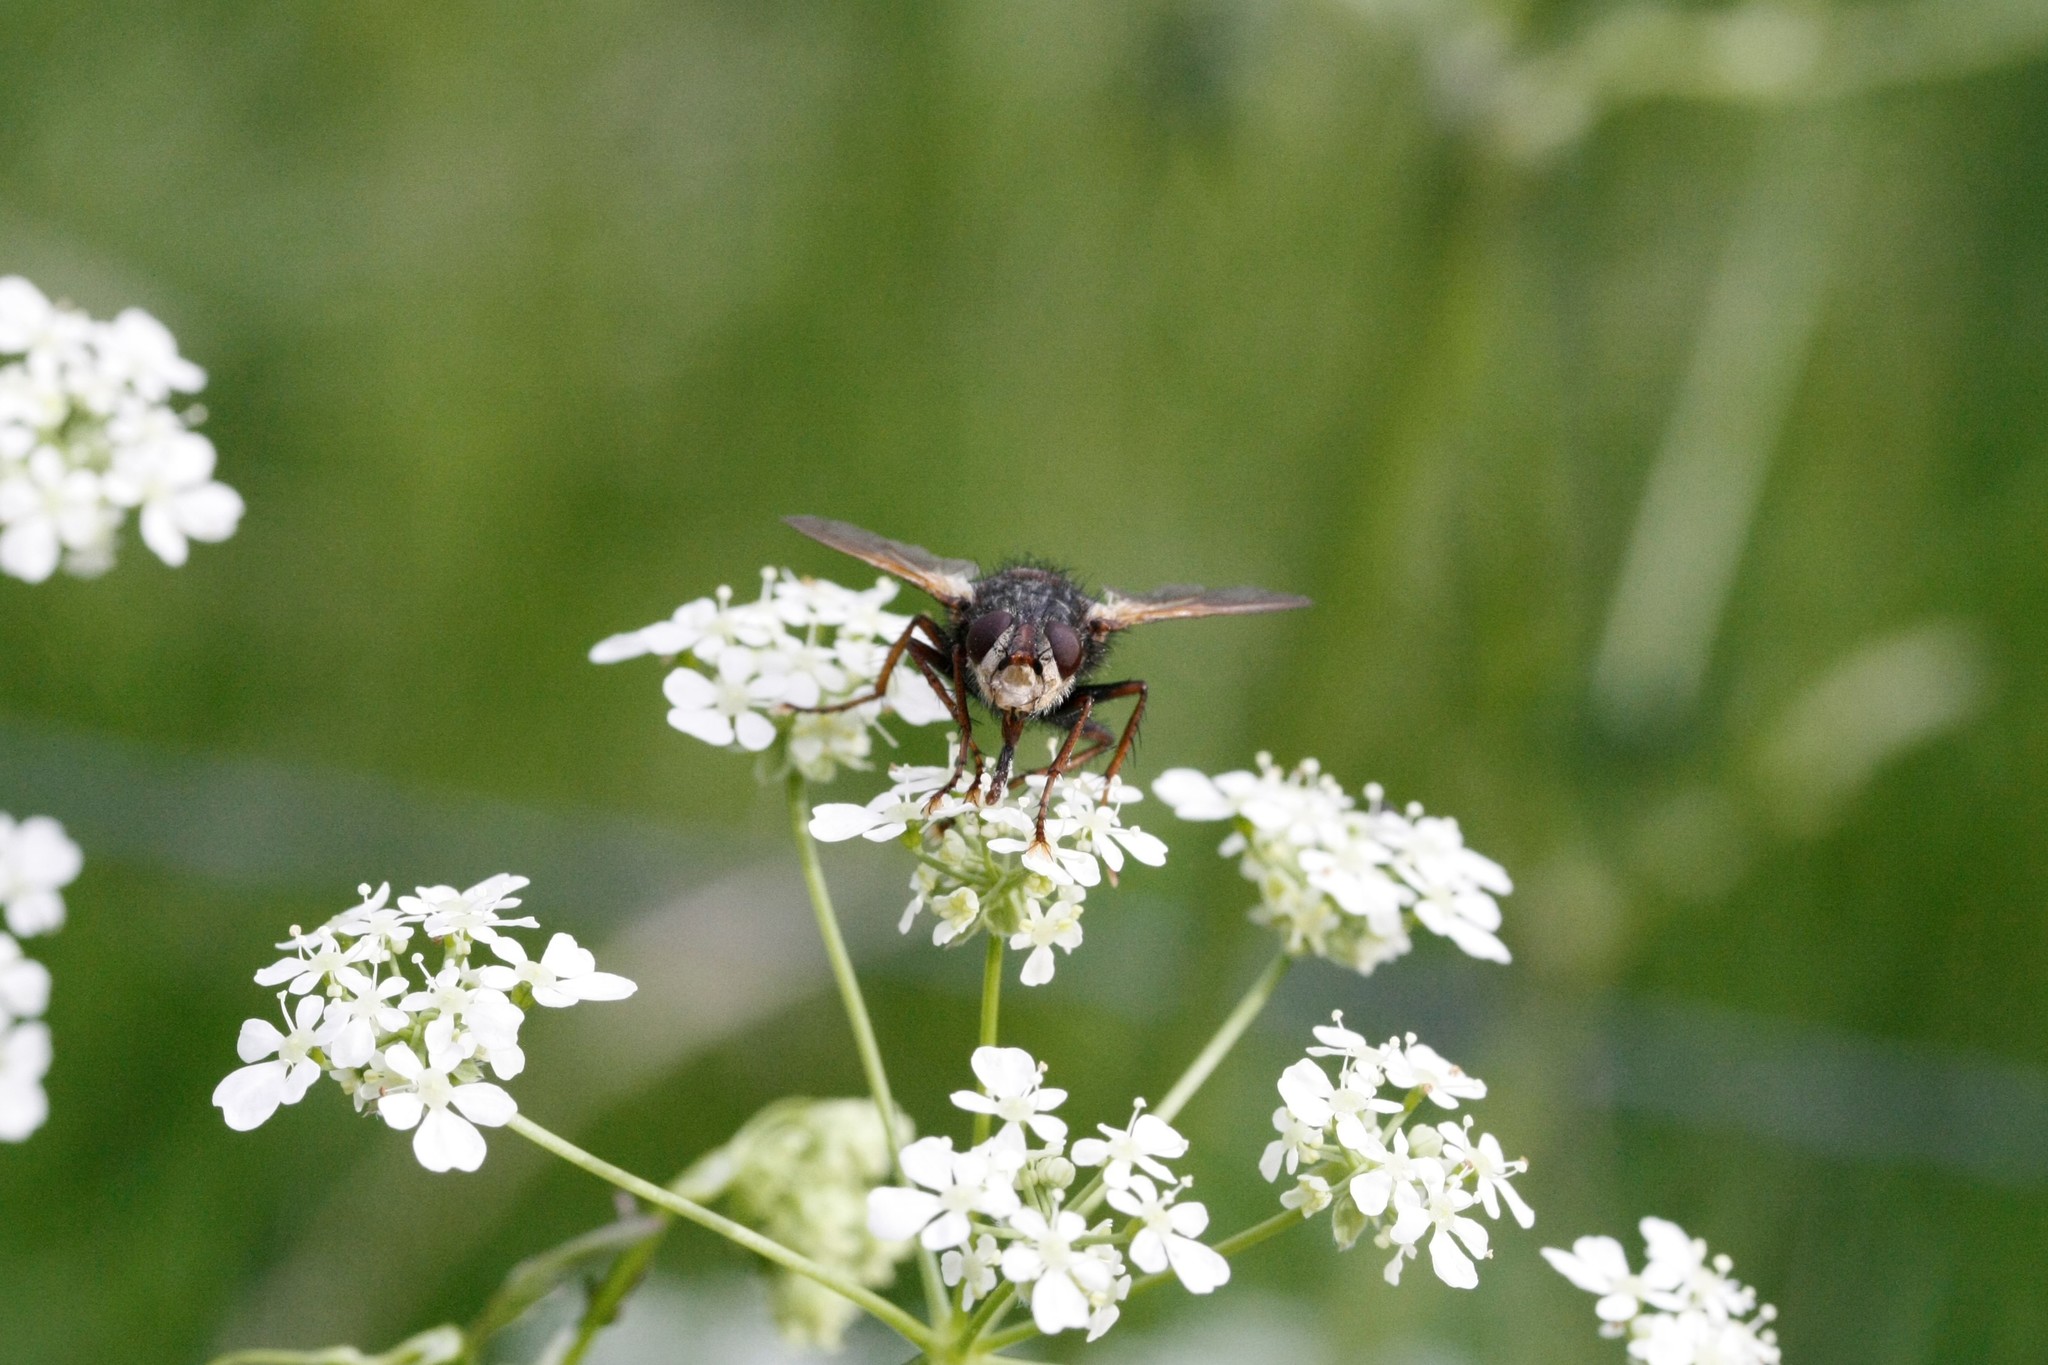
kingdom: Animalia
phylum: Arthropoda
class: Insecta
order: Diptera
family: Tachinidae
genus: Tachina
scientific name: Tachina fera
